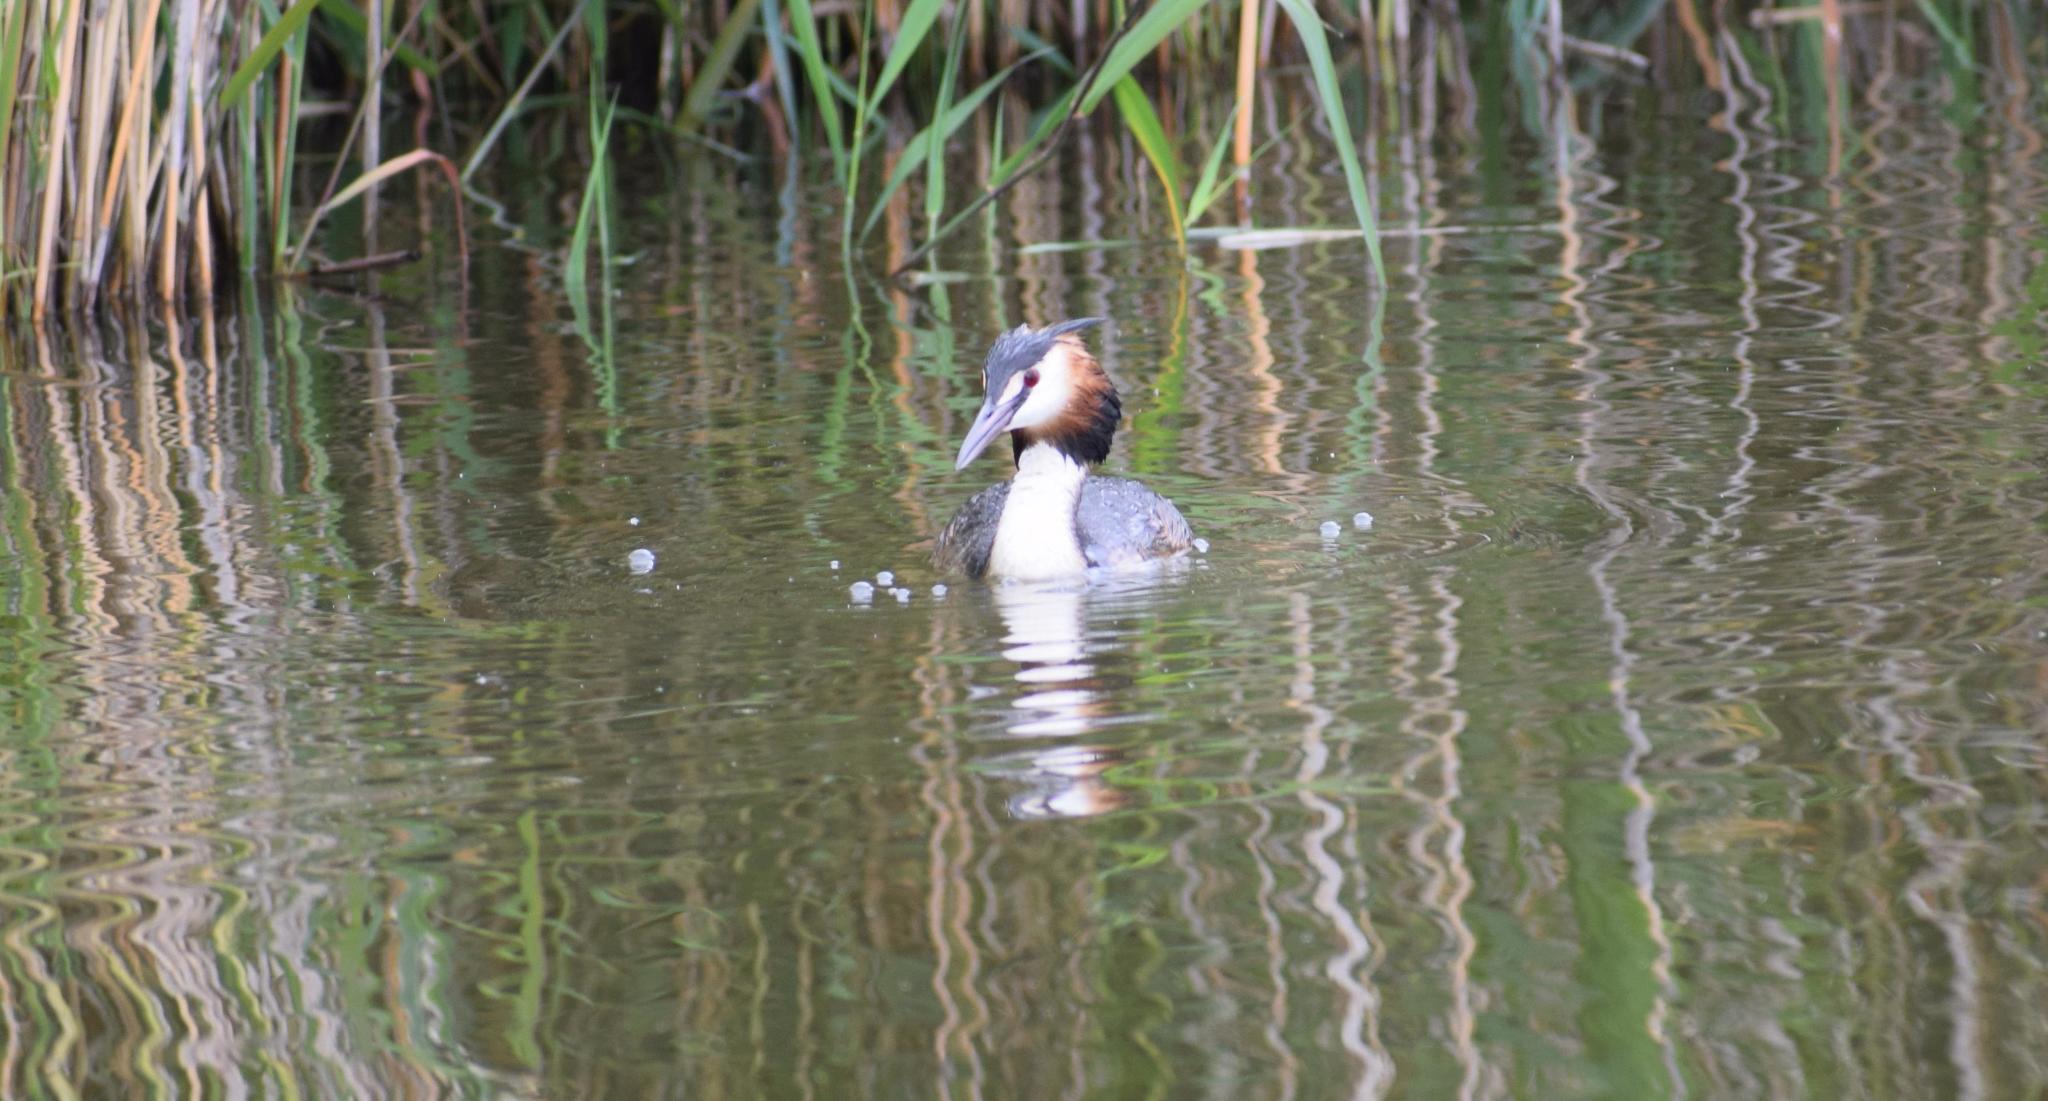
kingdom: Animalia
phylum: Chordata
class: Aves
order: Podicipediformes
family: Podicipedidae
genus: Podiceps
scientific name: Podiceps cristatus
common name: Great crested grebe
